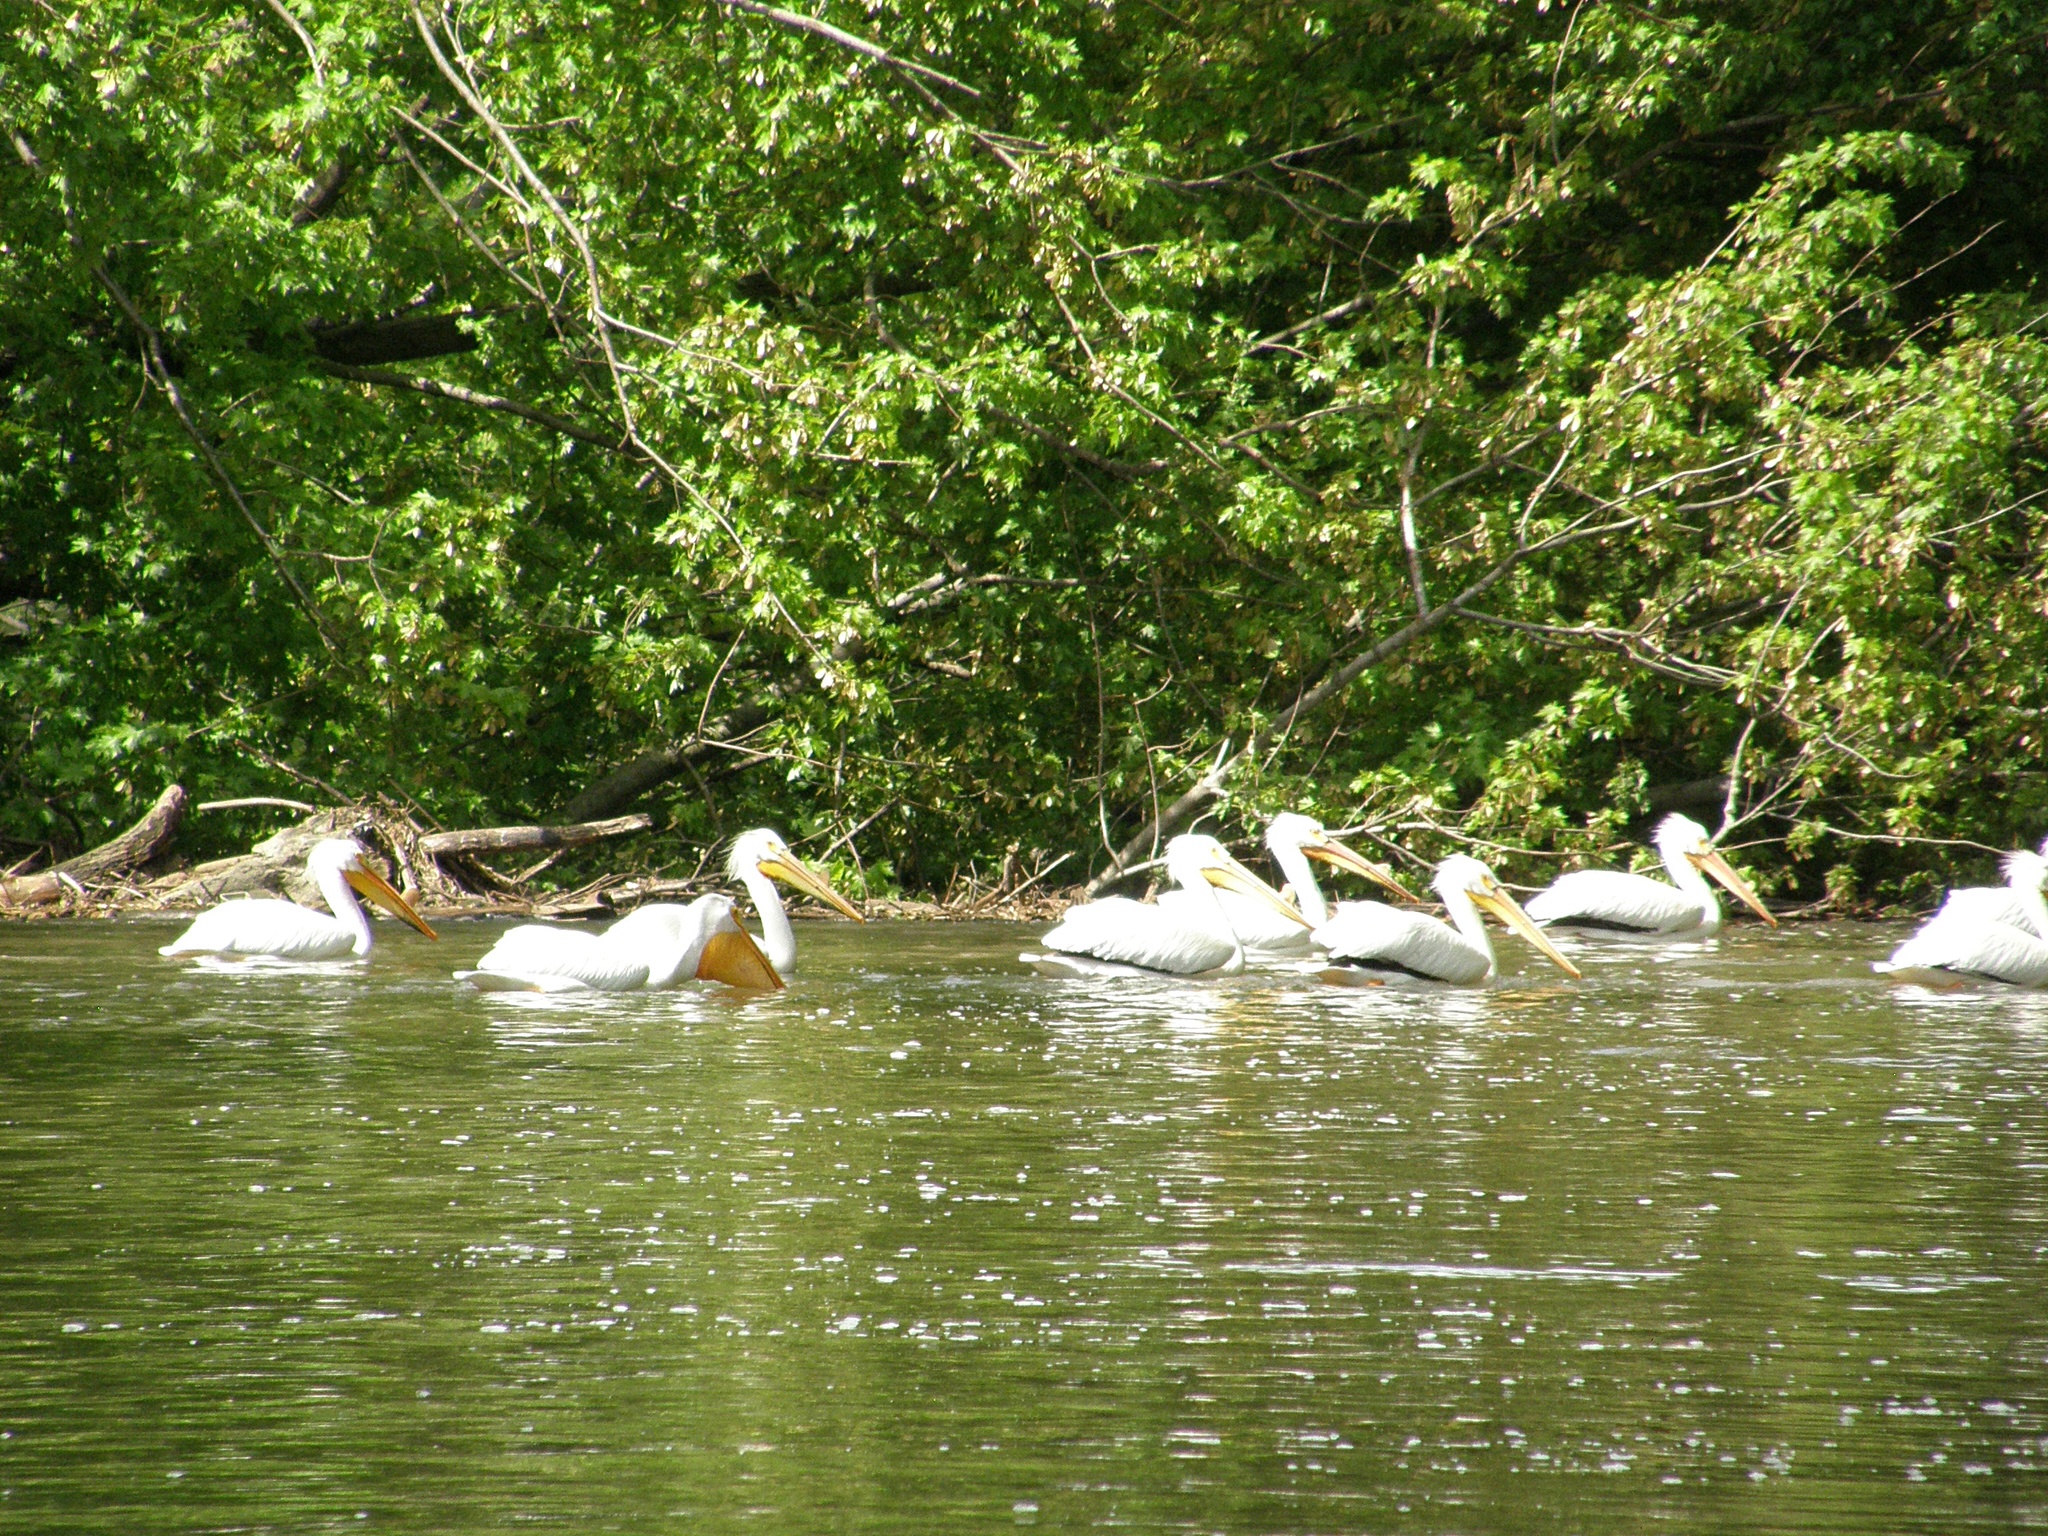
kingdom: Animalia
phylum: Chordata
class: Aves
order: Pelecaniformes
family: Pelecanidae
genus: Pelecanus
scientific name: Pelecanus erythrorhynchos
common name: American white pelican
